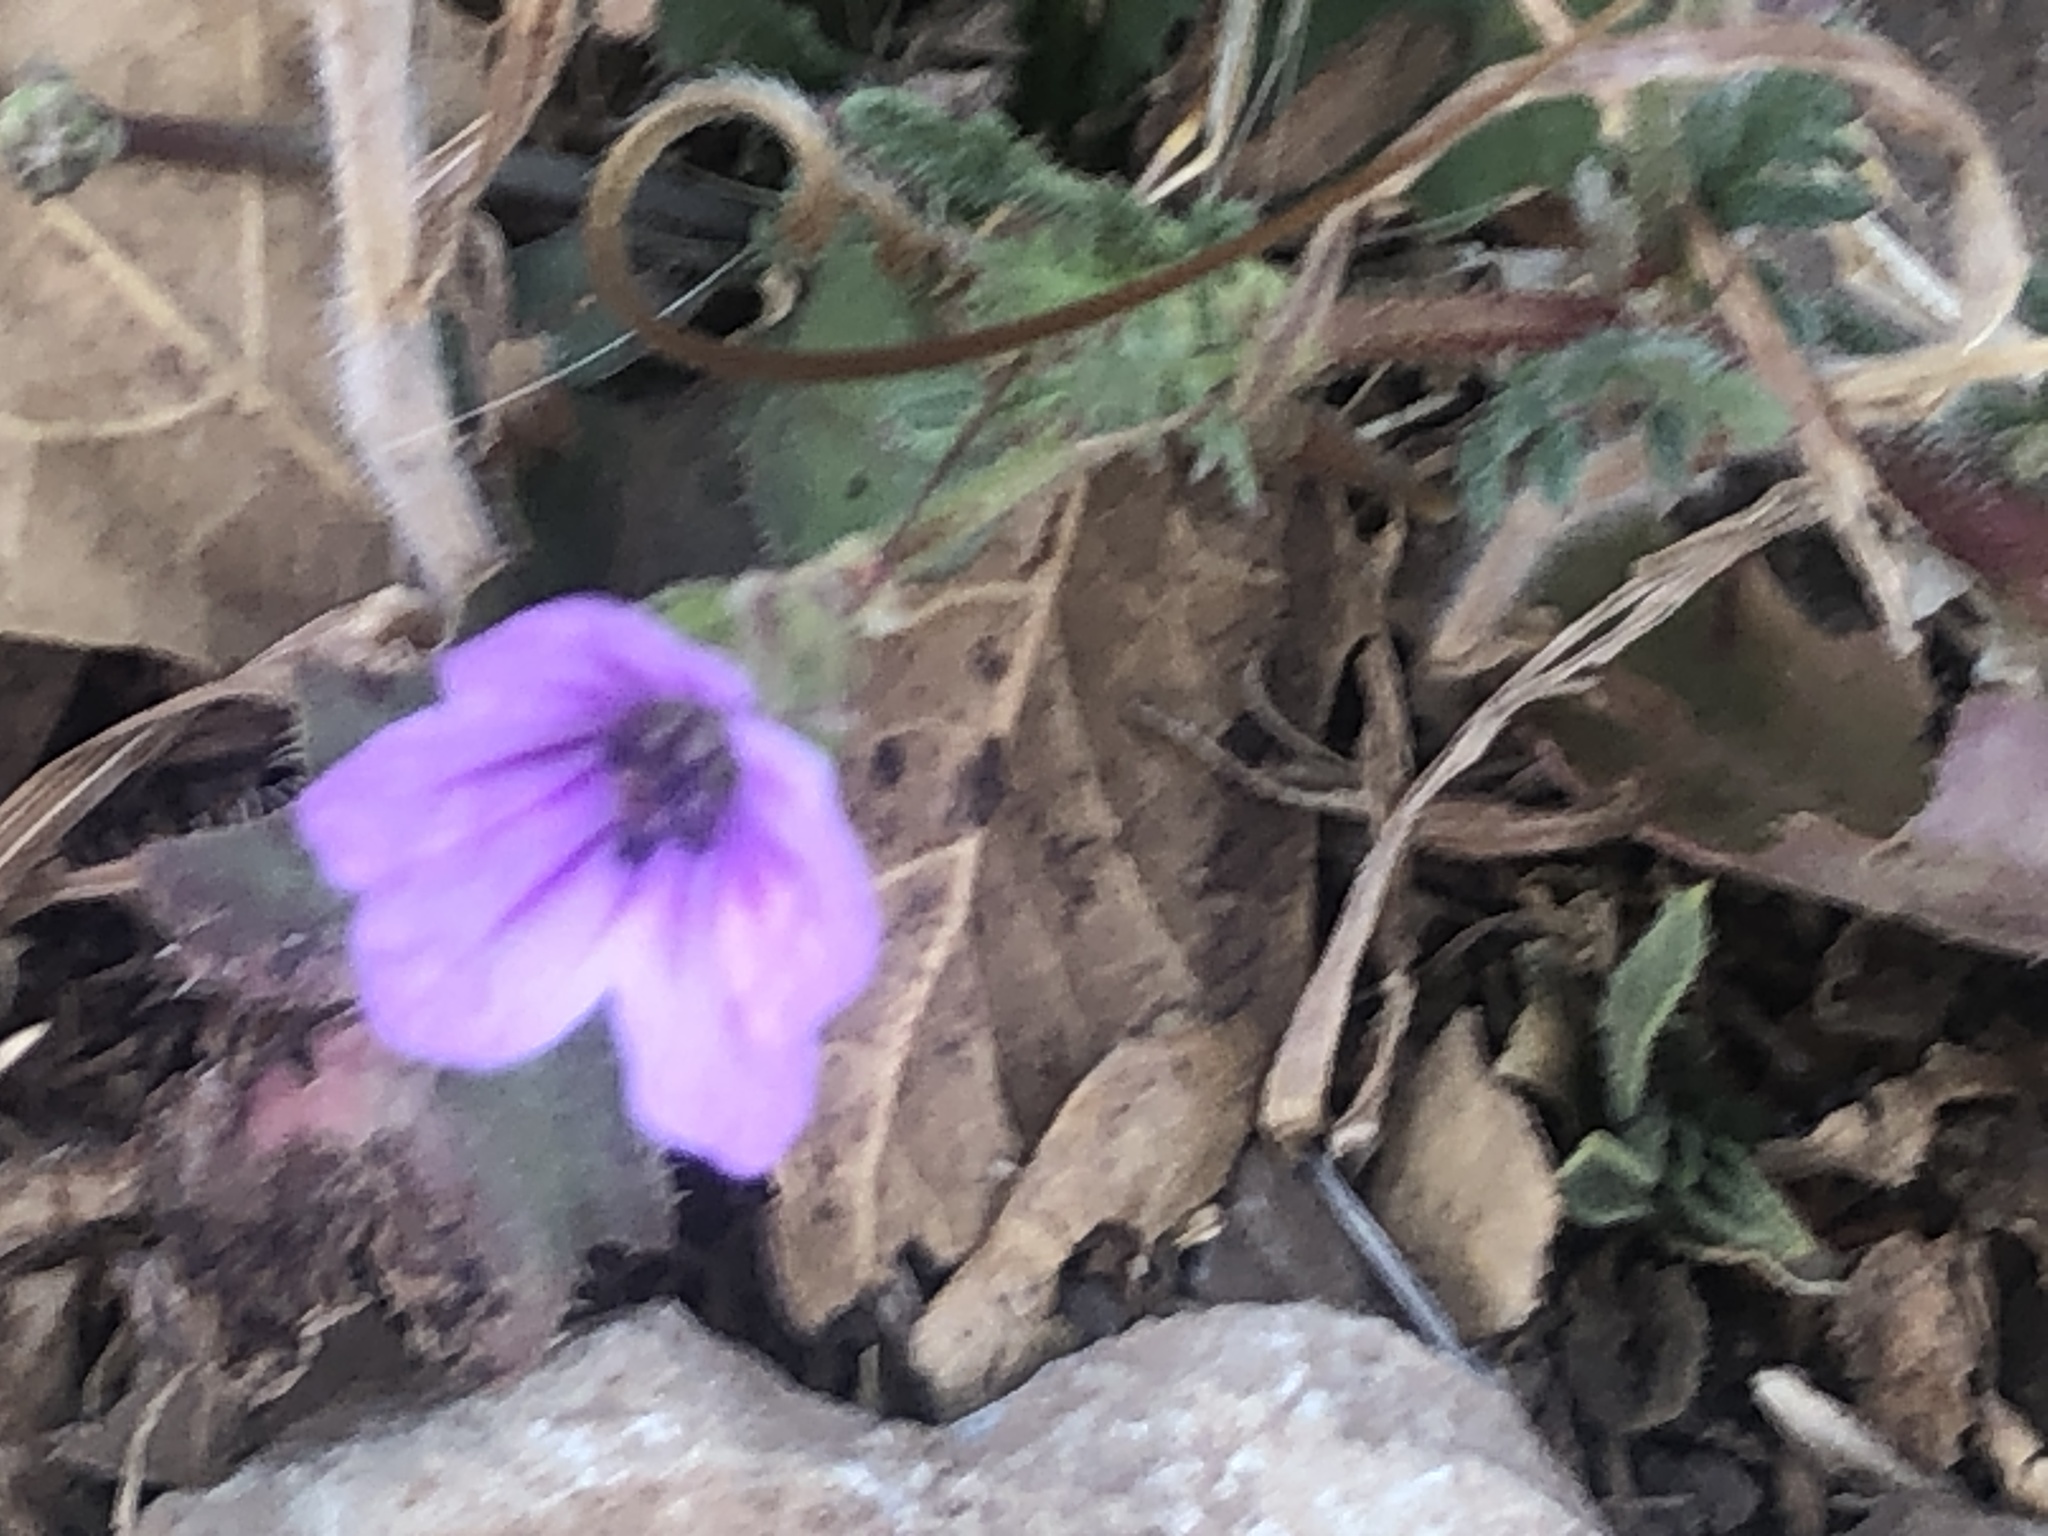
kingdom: Plantae
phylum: Tracheophyta
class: Magnoliopsida
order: Geraniales
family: Geraniaceae
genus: Erodium
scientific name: Erodium botrys
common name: Mediterranean stork's-bill
